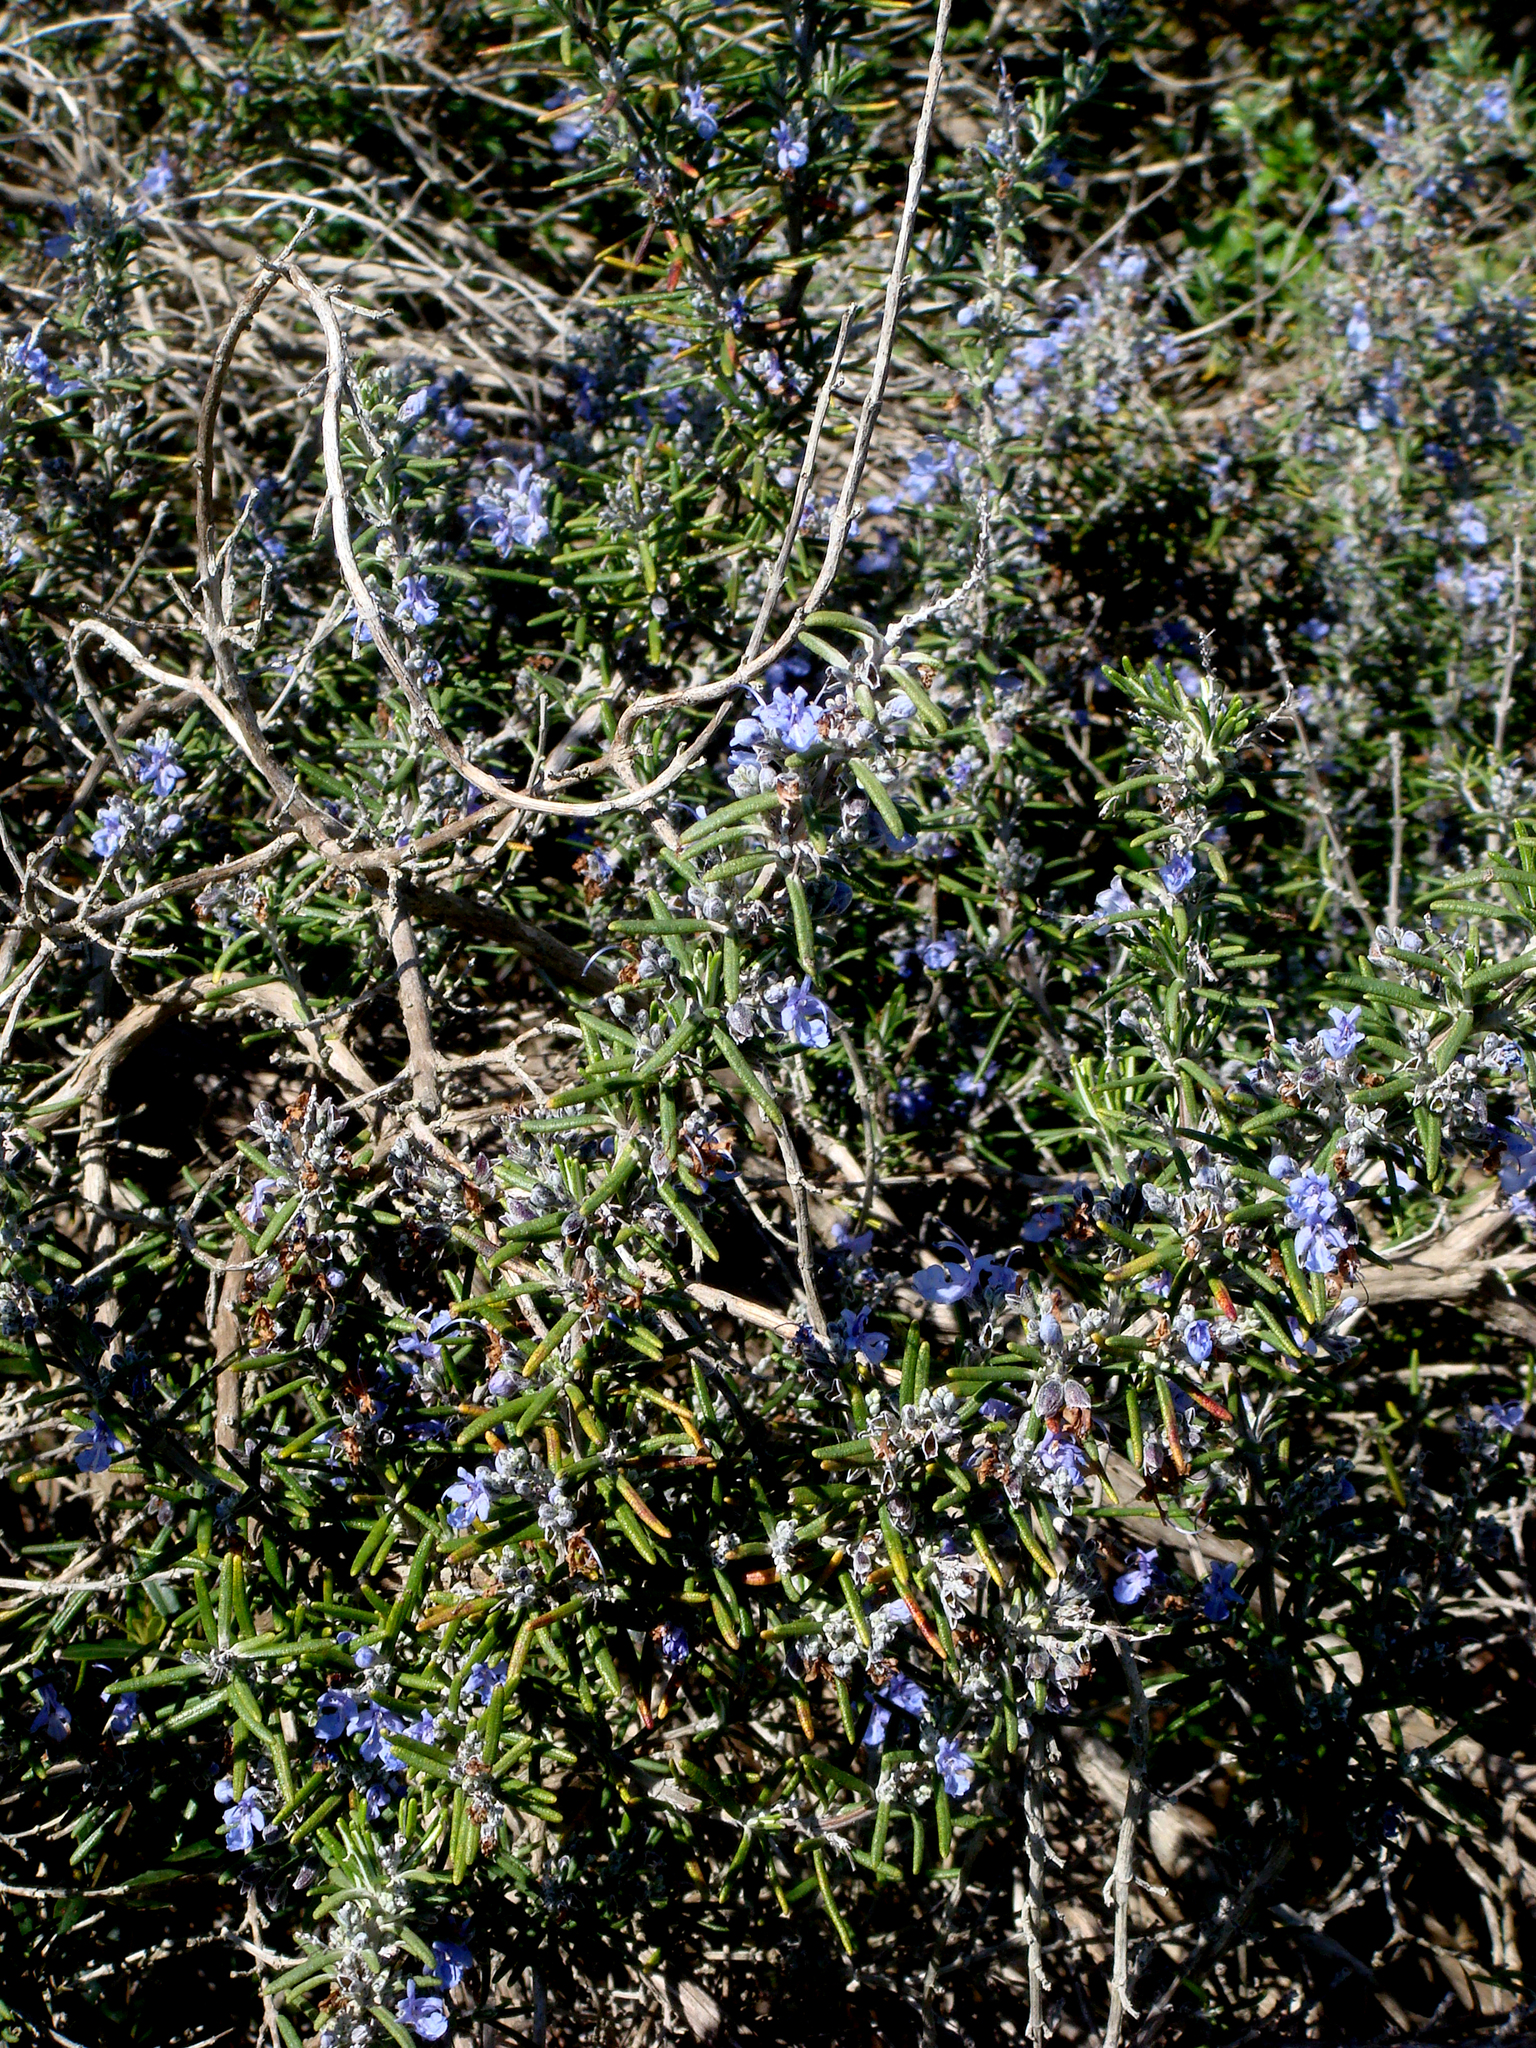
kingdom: Plantae
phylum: Tracheophyta
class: Magnoliopsida
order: Lamiales
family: Lamiaceae
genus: Salvia
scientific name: Salvia rosmarinus
